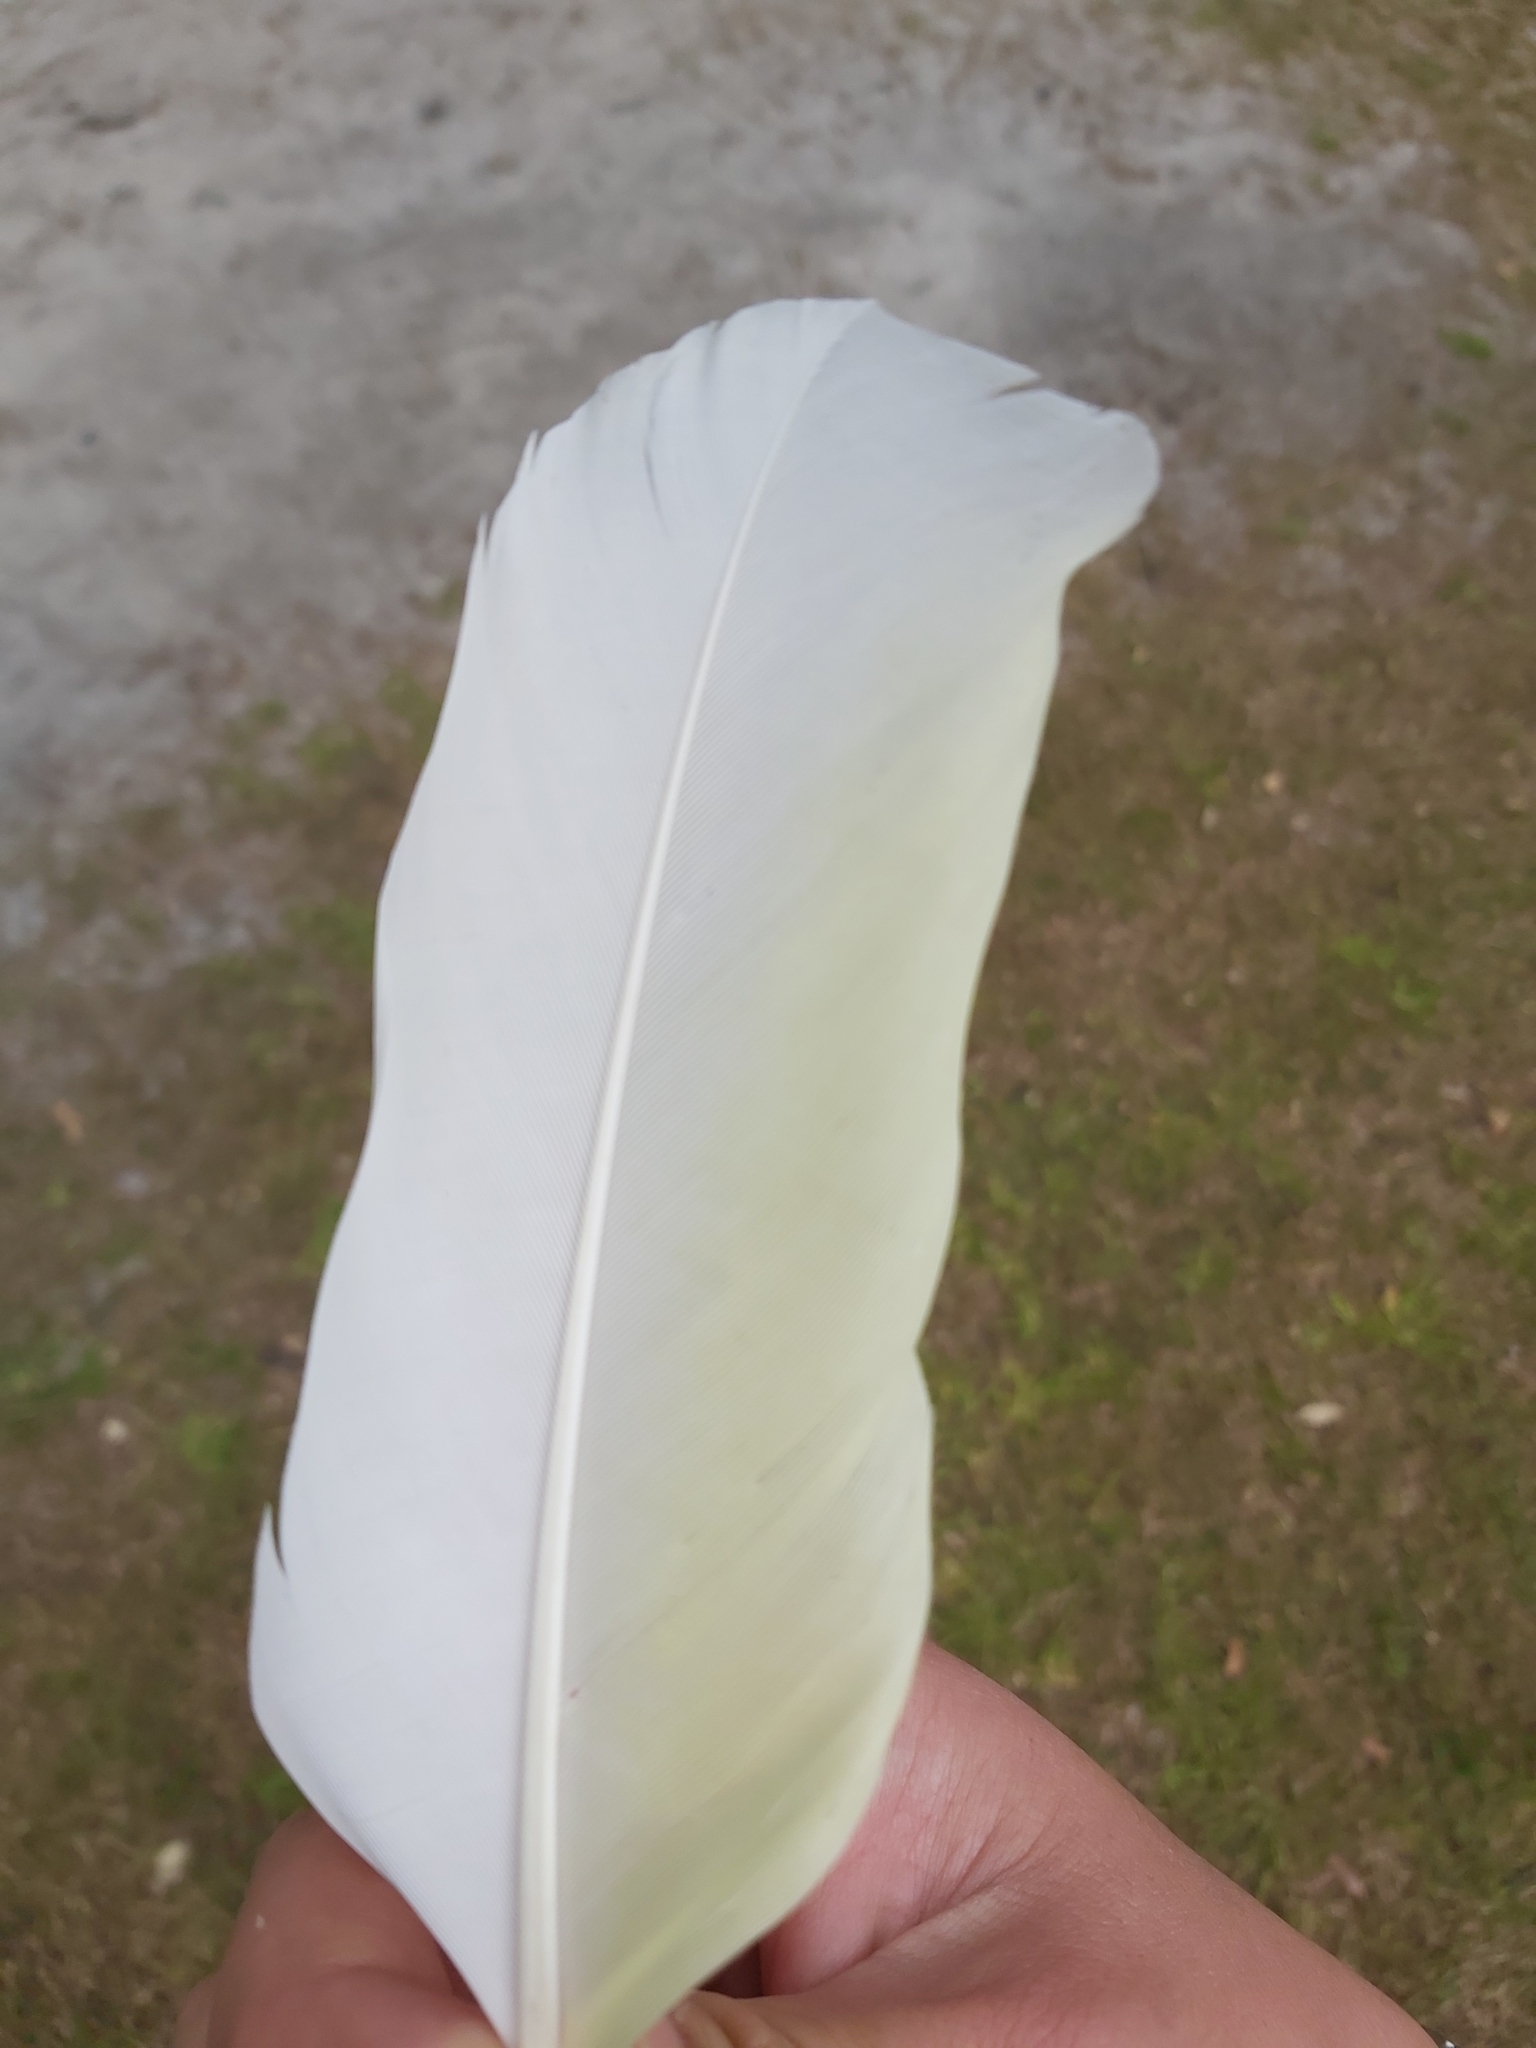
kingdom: Animalia
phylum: Chordata
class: Aves
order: Psittaciformes
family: Psittacidae
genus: Cacatua
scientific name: Cacatua galerita
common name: Sulphur-crested cockatoo
